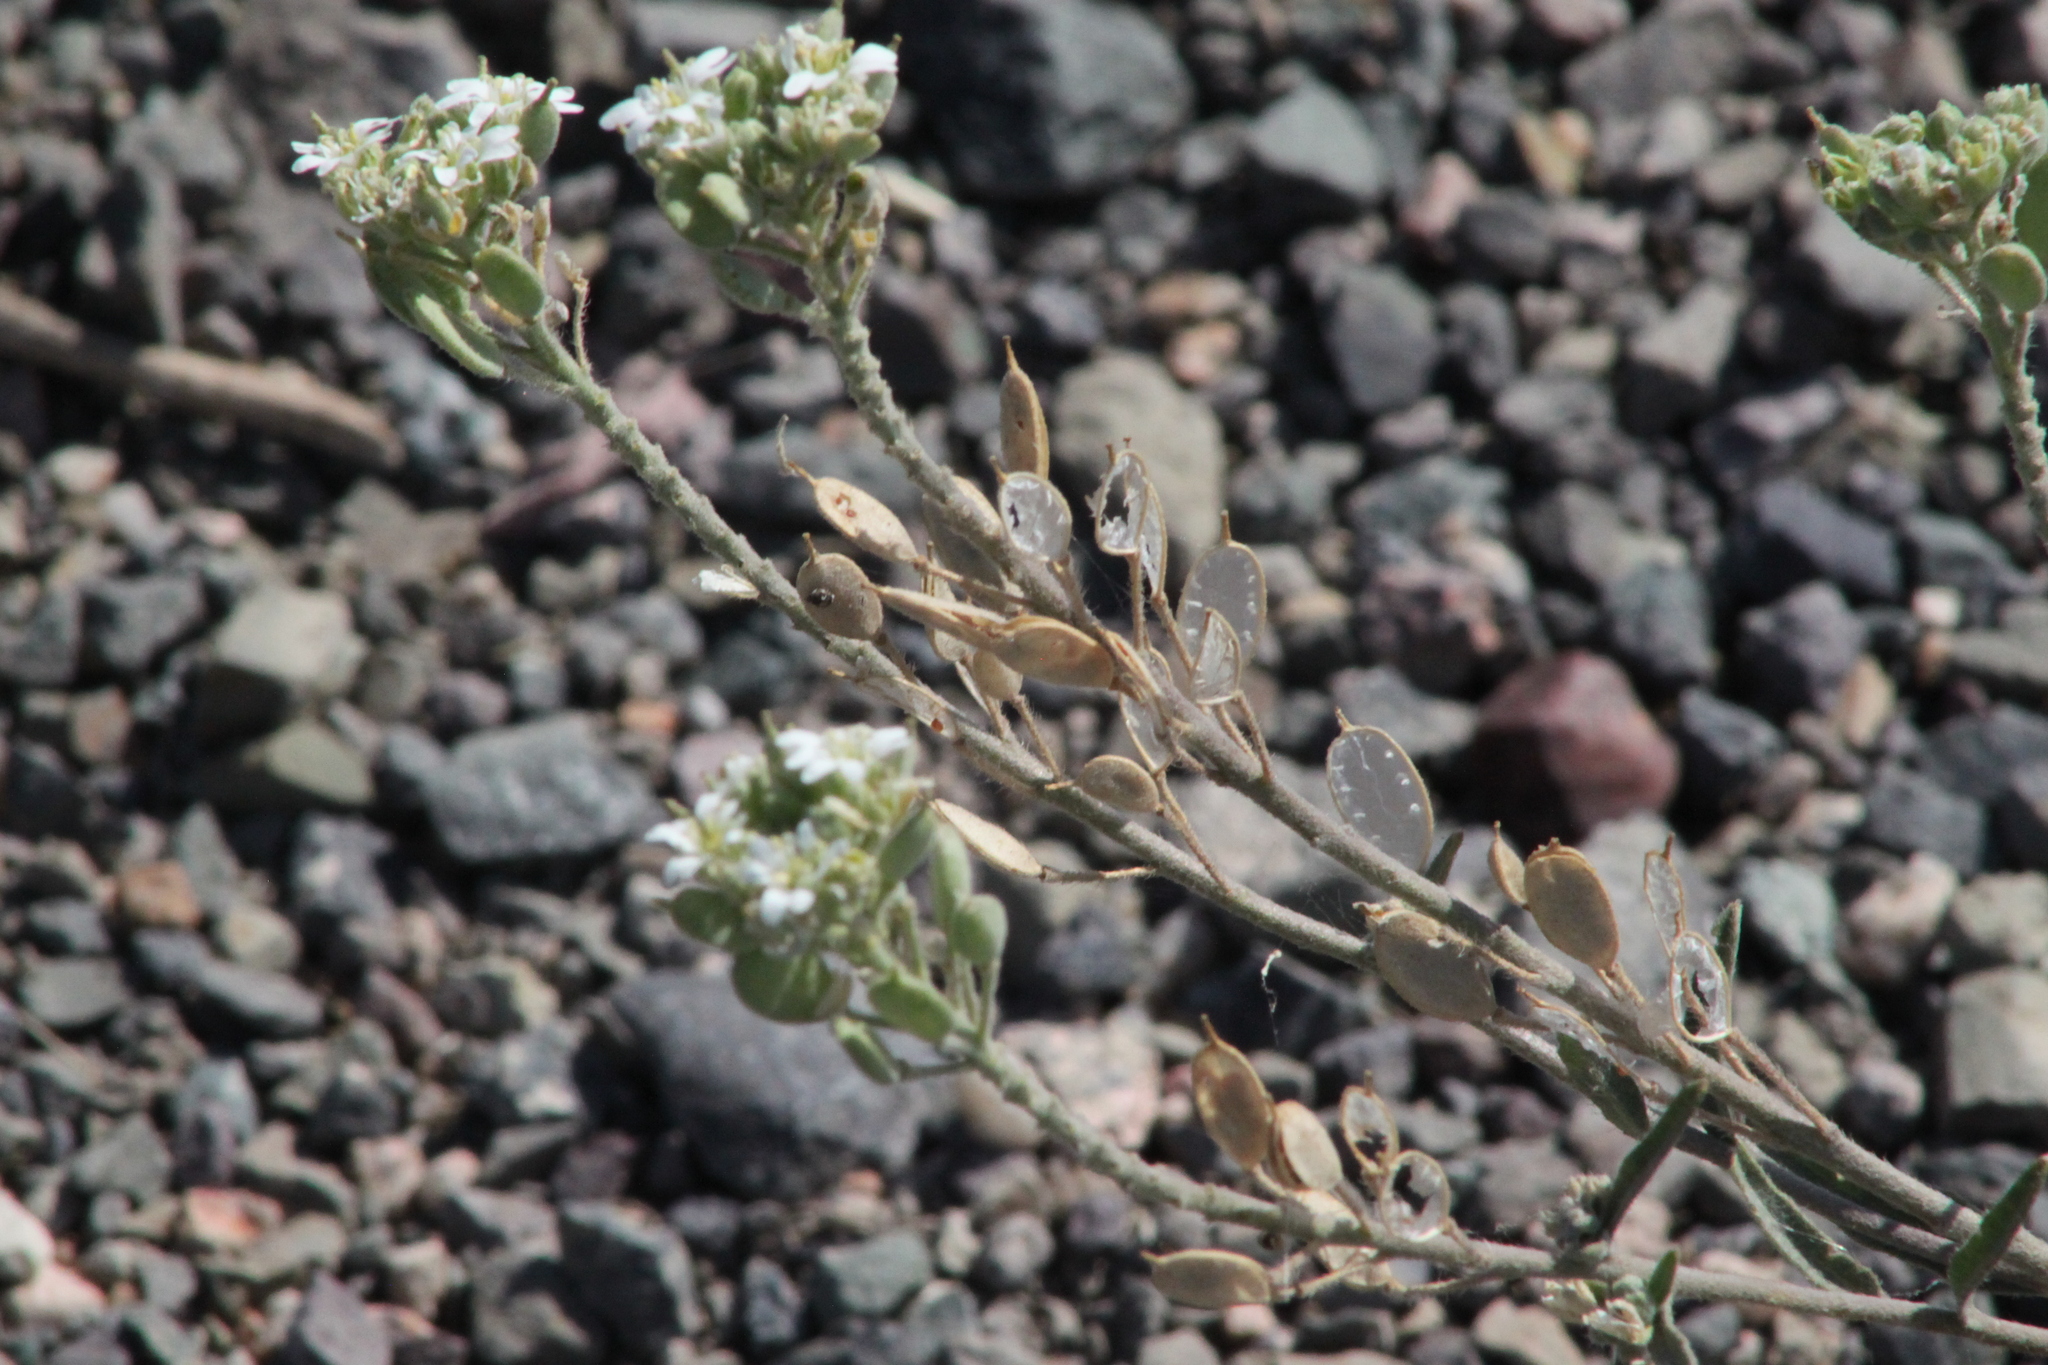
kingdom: Plantae
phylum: Tracheophyta
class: Magnoliopsida
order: Brassicales
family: Brassicaceae
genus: Galitzkya
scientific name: Galitzkya spathulata
